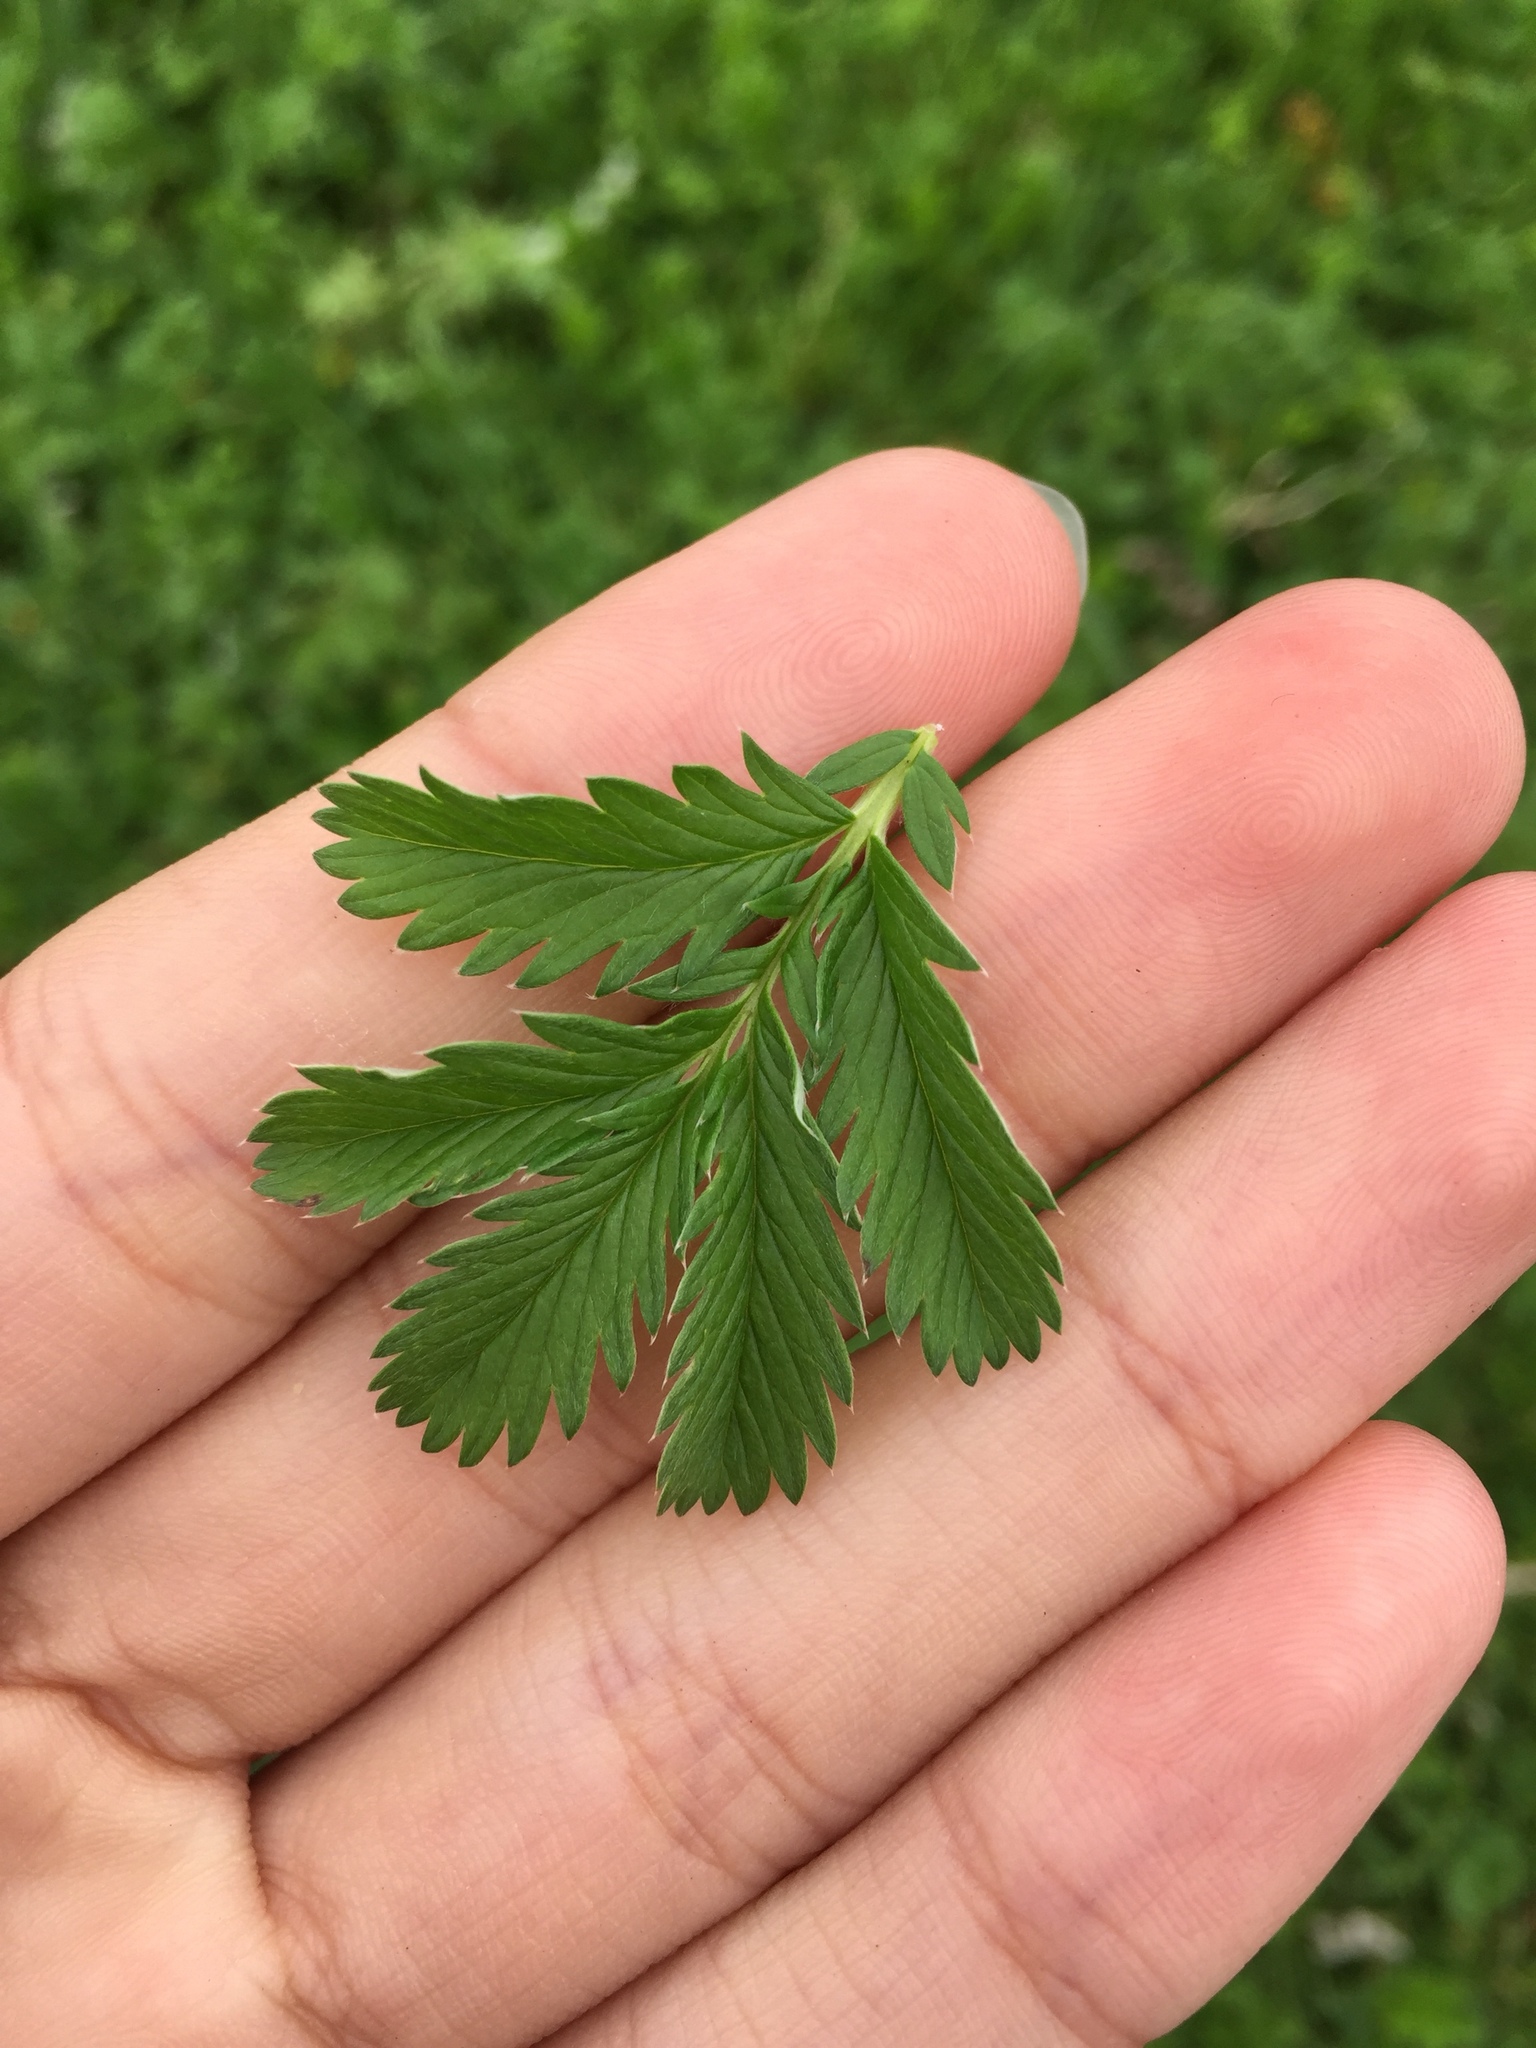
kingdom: Plantae
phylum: Tracheophyta
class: Magnoliopsida
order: Rosales
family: Rosaceae
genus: Argentina
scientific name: Argentina anserina
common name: Common silverweed
